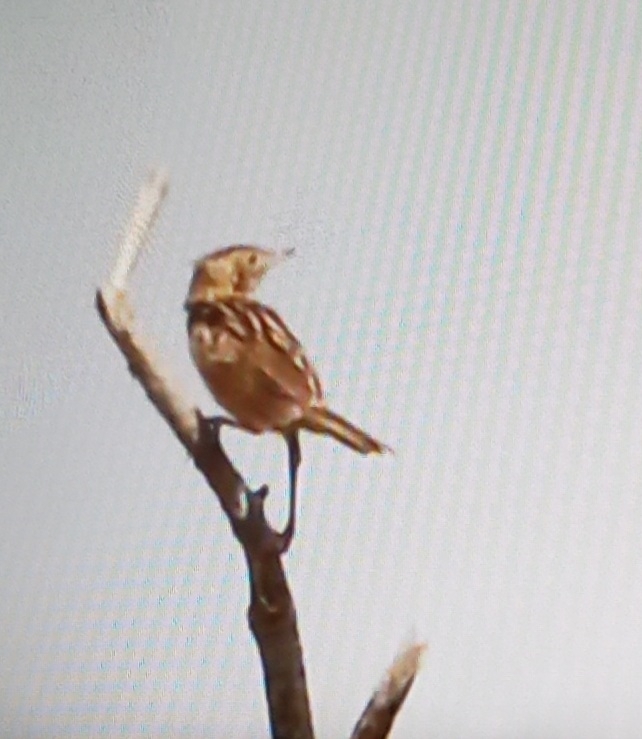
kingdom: Animalia
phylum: Chordata
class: Aves
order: Passeriformes
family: Cisticolidae
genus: Cisticola
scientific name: Cisticola juncidis
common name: Zitting cisticola
